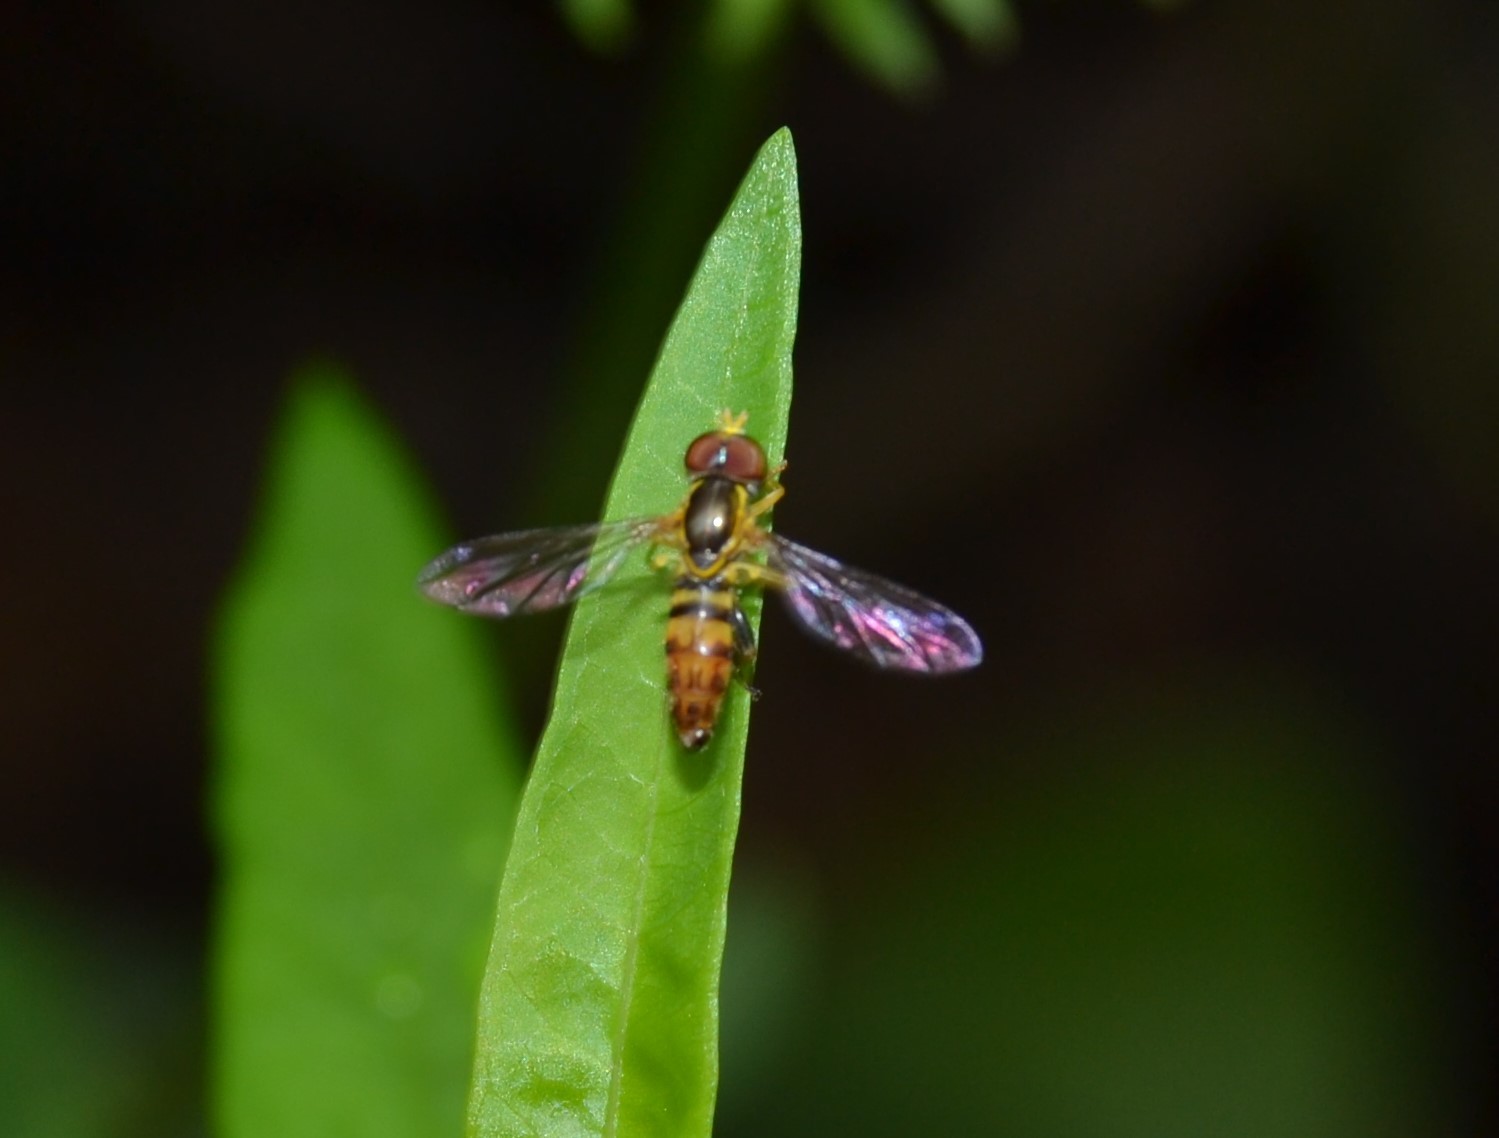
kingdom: Animalia
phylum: Arthropoda
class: Insecta
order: Diptera
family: Syrphidae
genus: Toxomerus
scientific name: Toxomerus geminatus
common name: Eastern calligrapher
